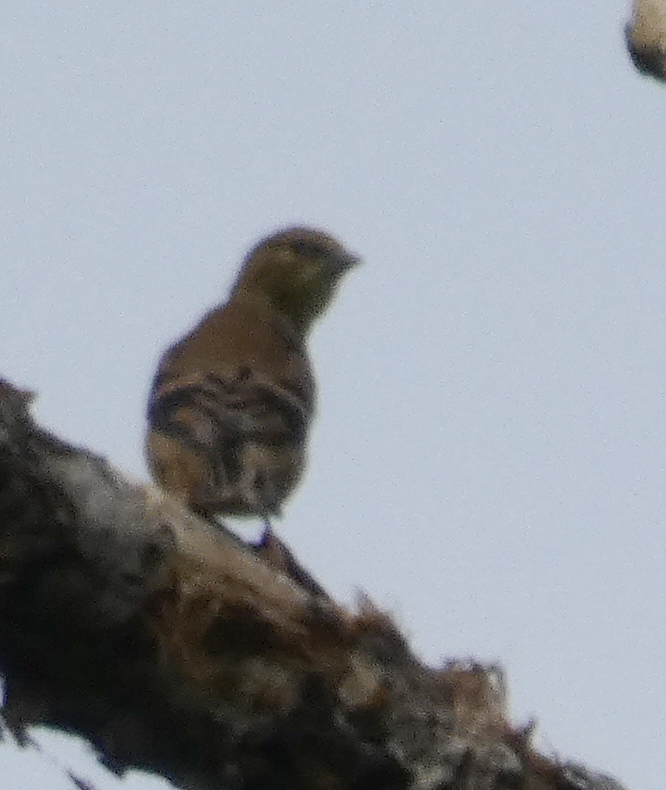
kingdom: Animalia
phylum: Chordata
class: Aves
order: Passeriformes
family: Fringillidae
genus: Spinus
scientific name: Spinus tristis
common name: American goldfinch
